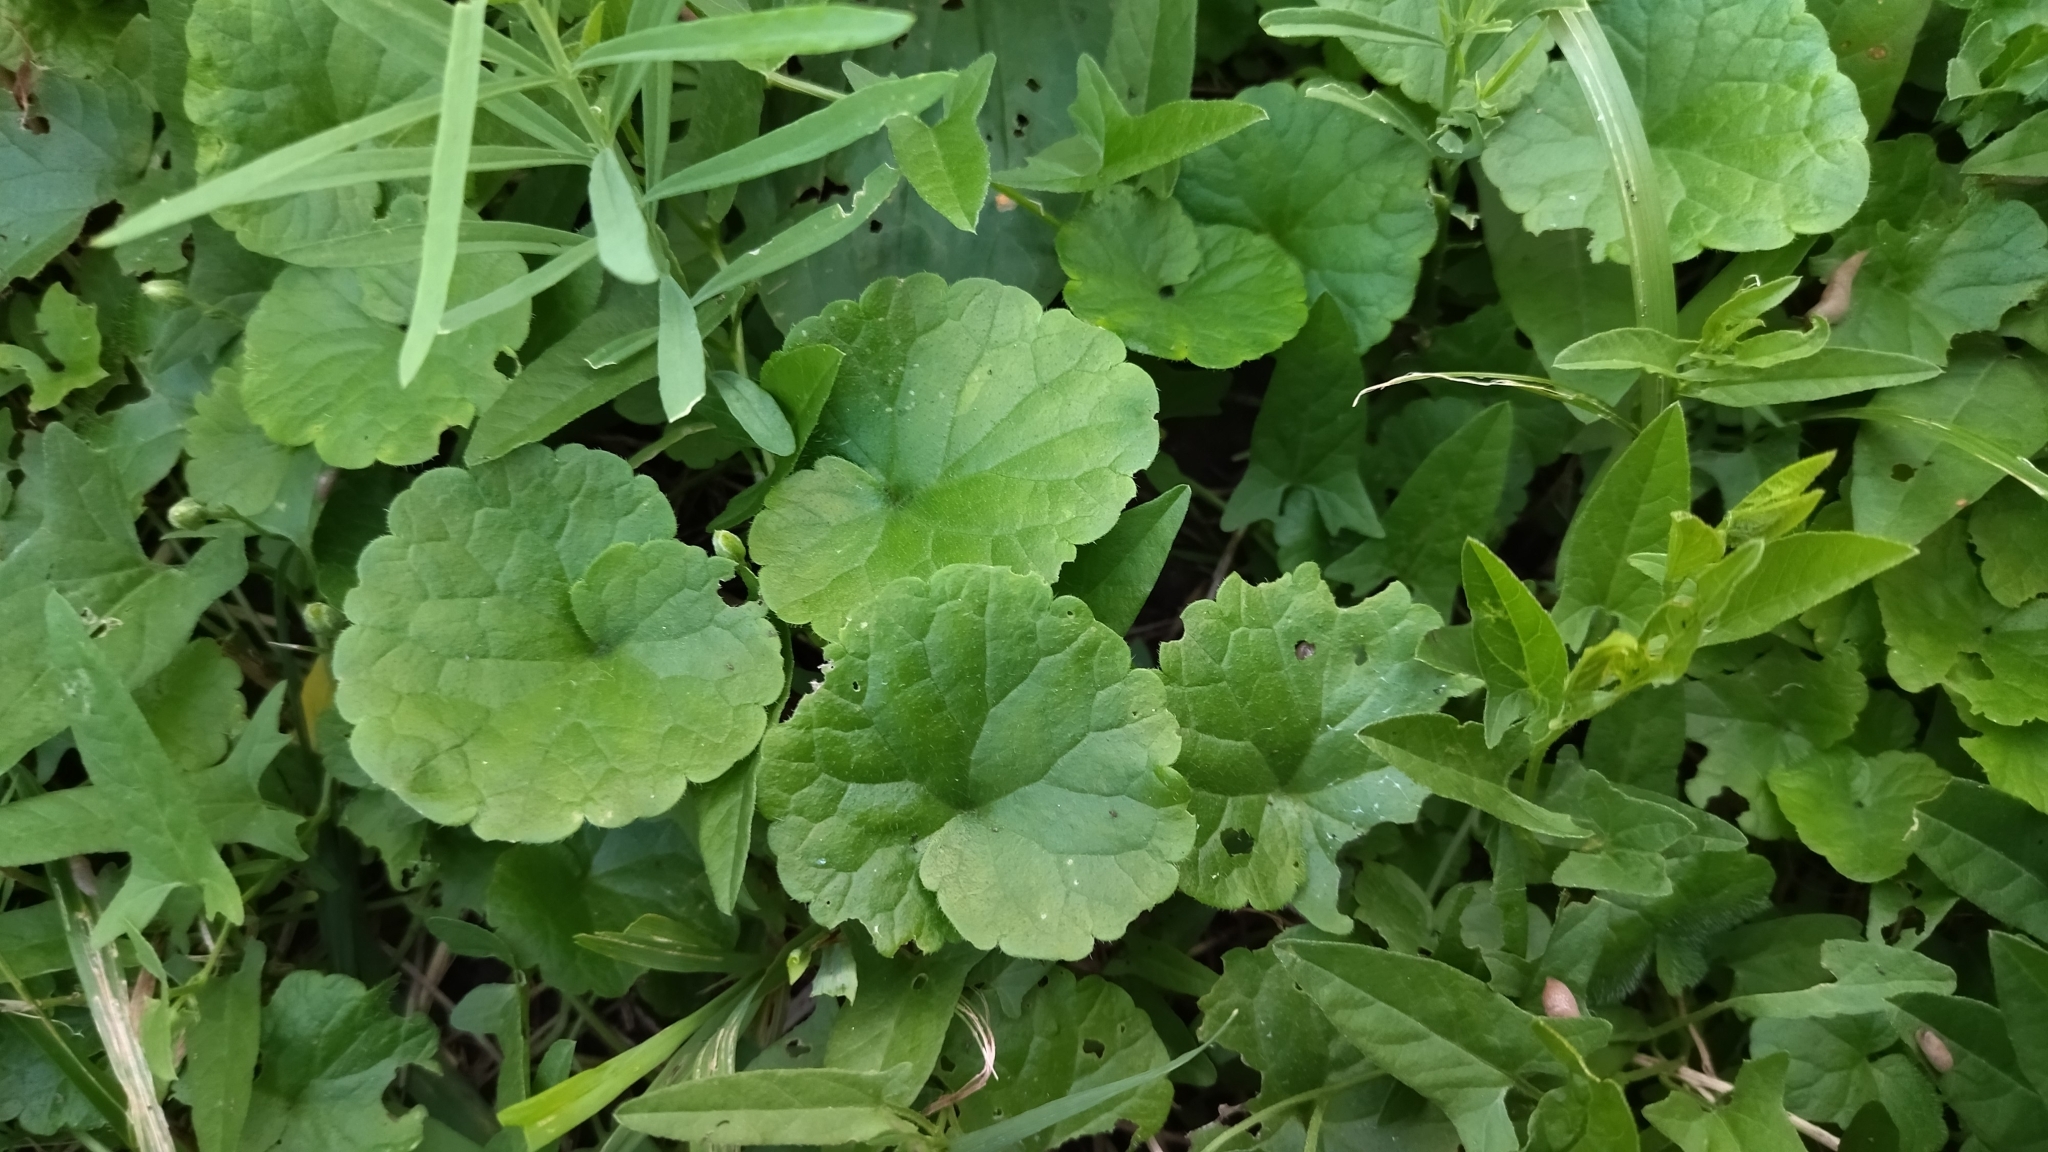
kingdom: Plantae
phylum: Tracheophyta
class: Magnoliopsida
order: Lamiales
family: Lamiaceae
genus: Glechoma
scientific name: Glechoma hederacea
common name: Ground ivy
